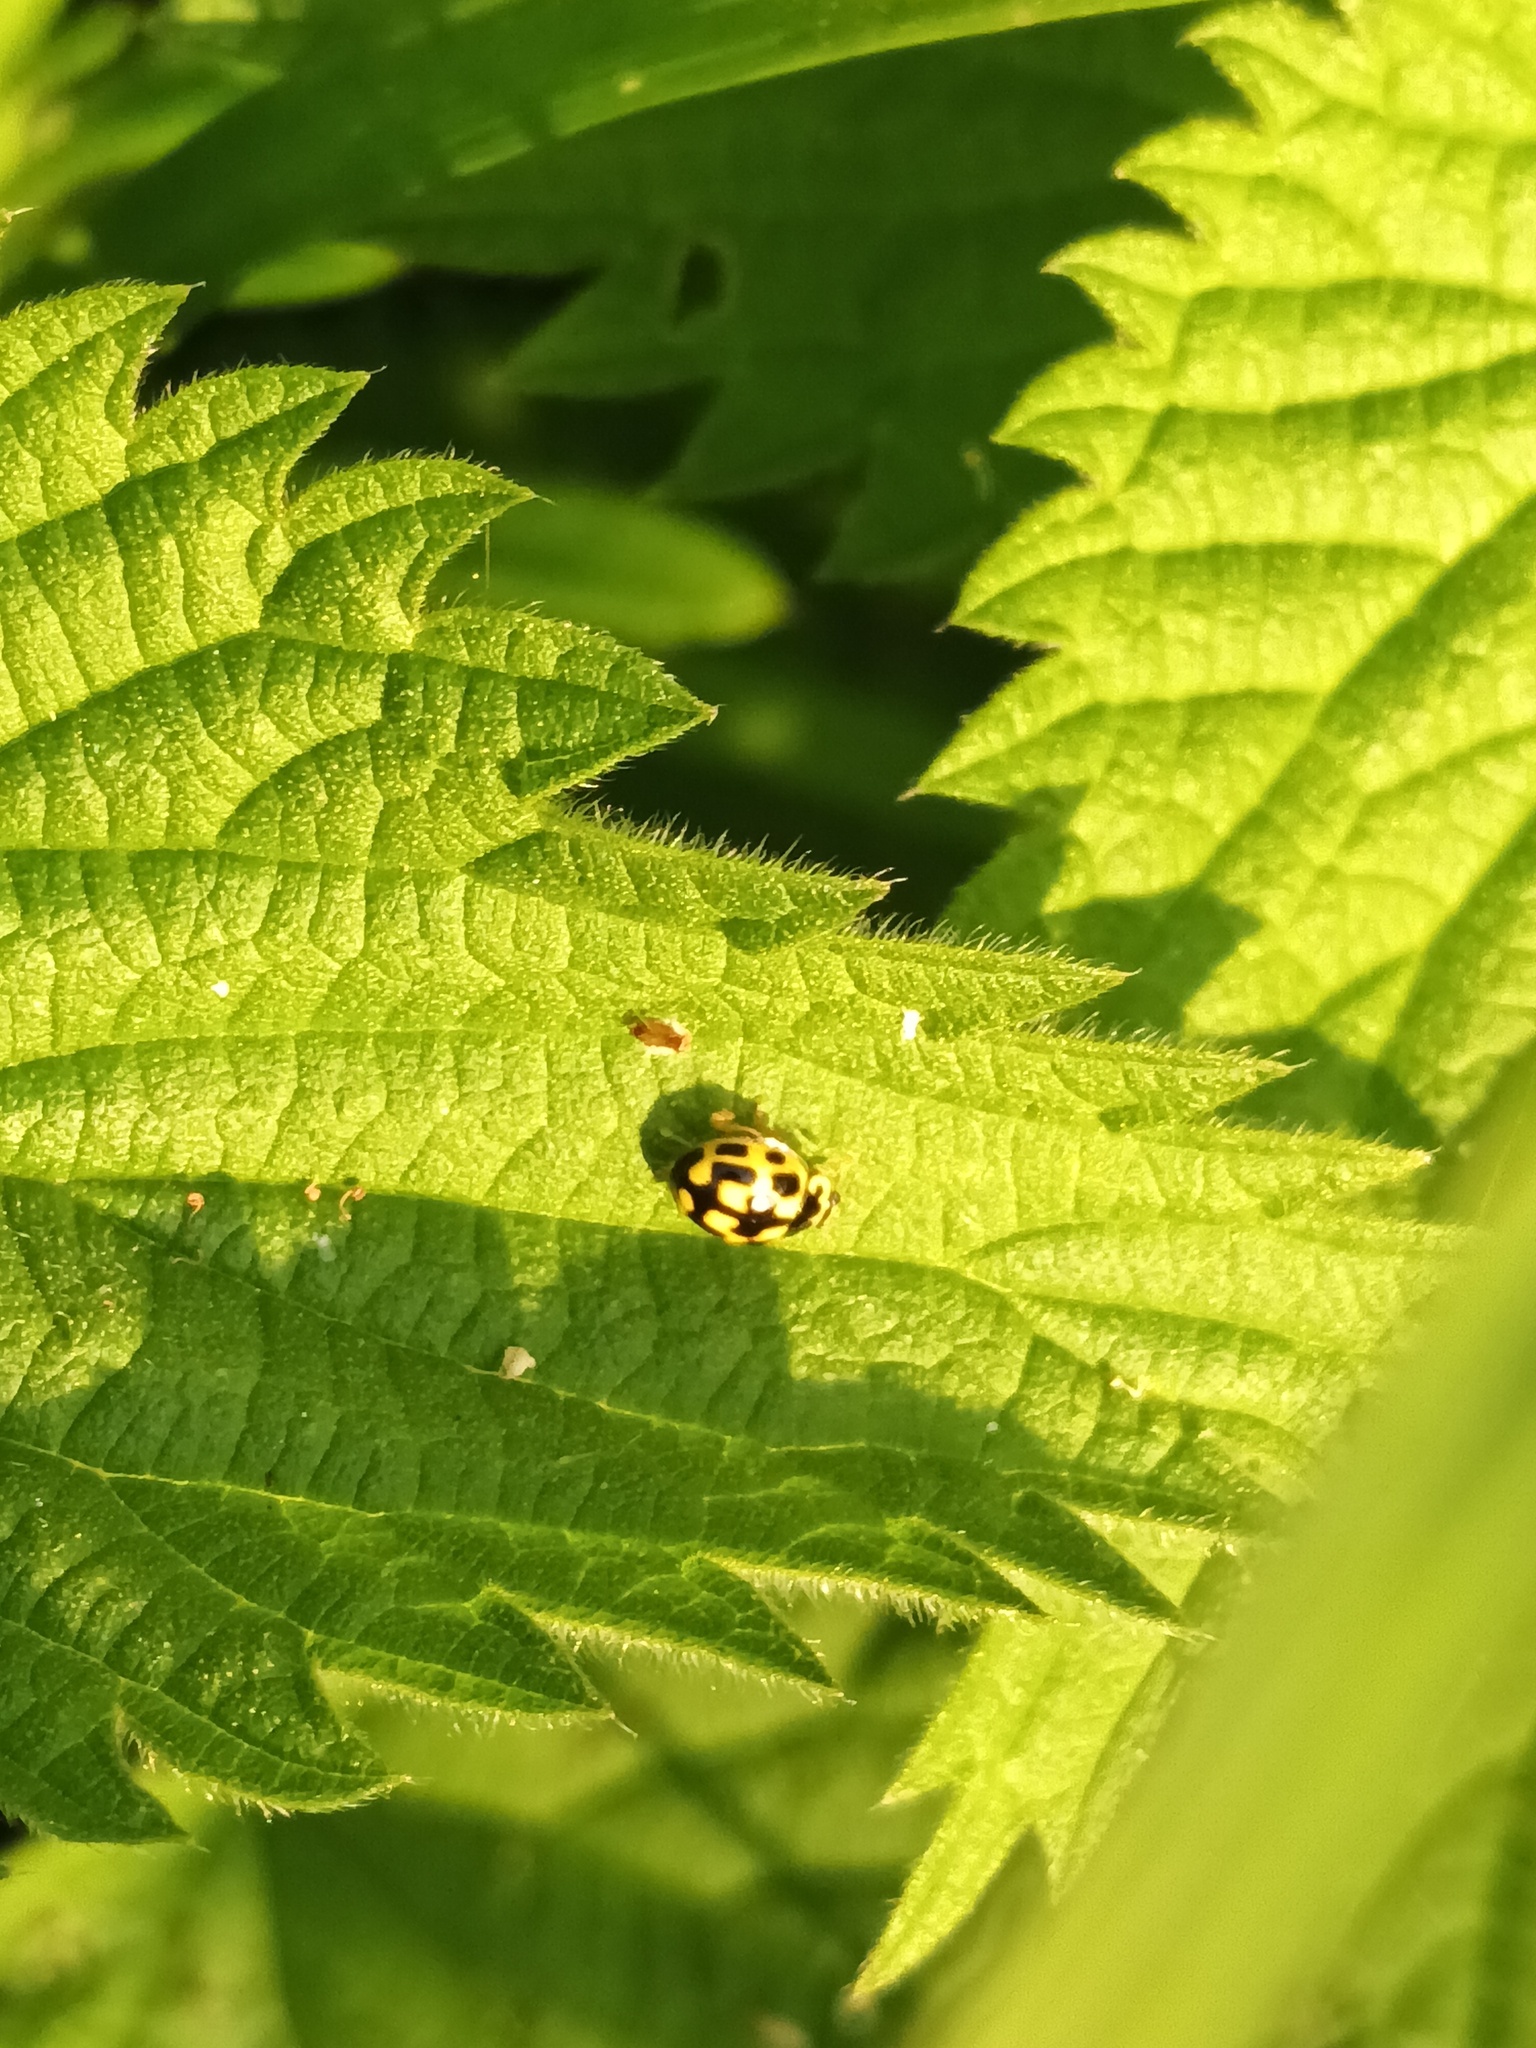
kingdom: Animalia
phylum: Arthropoda
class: Insecta
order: Coleoptera
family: Coccinellidae
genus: Propylaea
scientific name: Propylaea quatuordecimpunctata
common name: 14-spotted ladybird beetle
